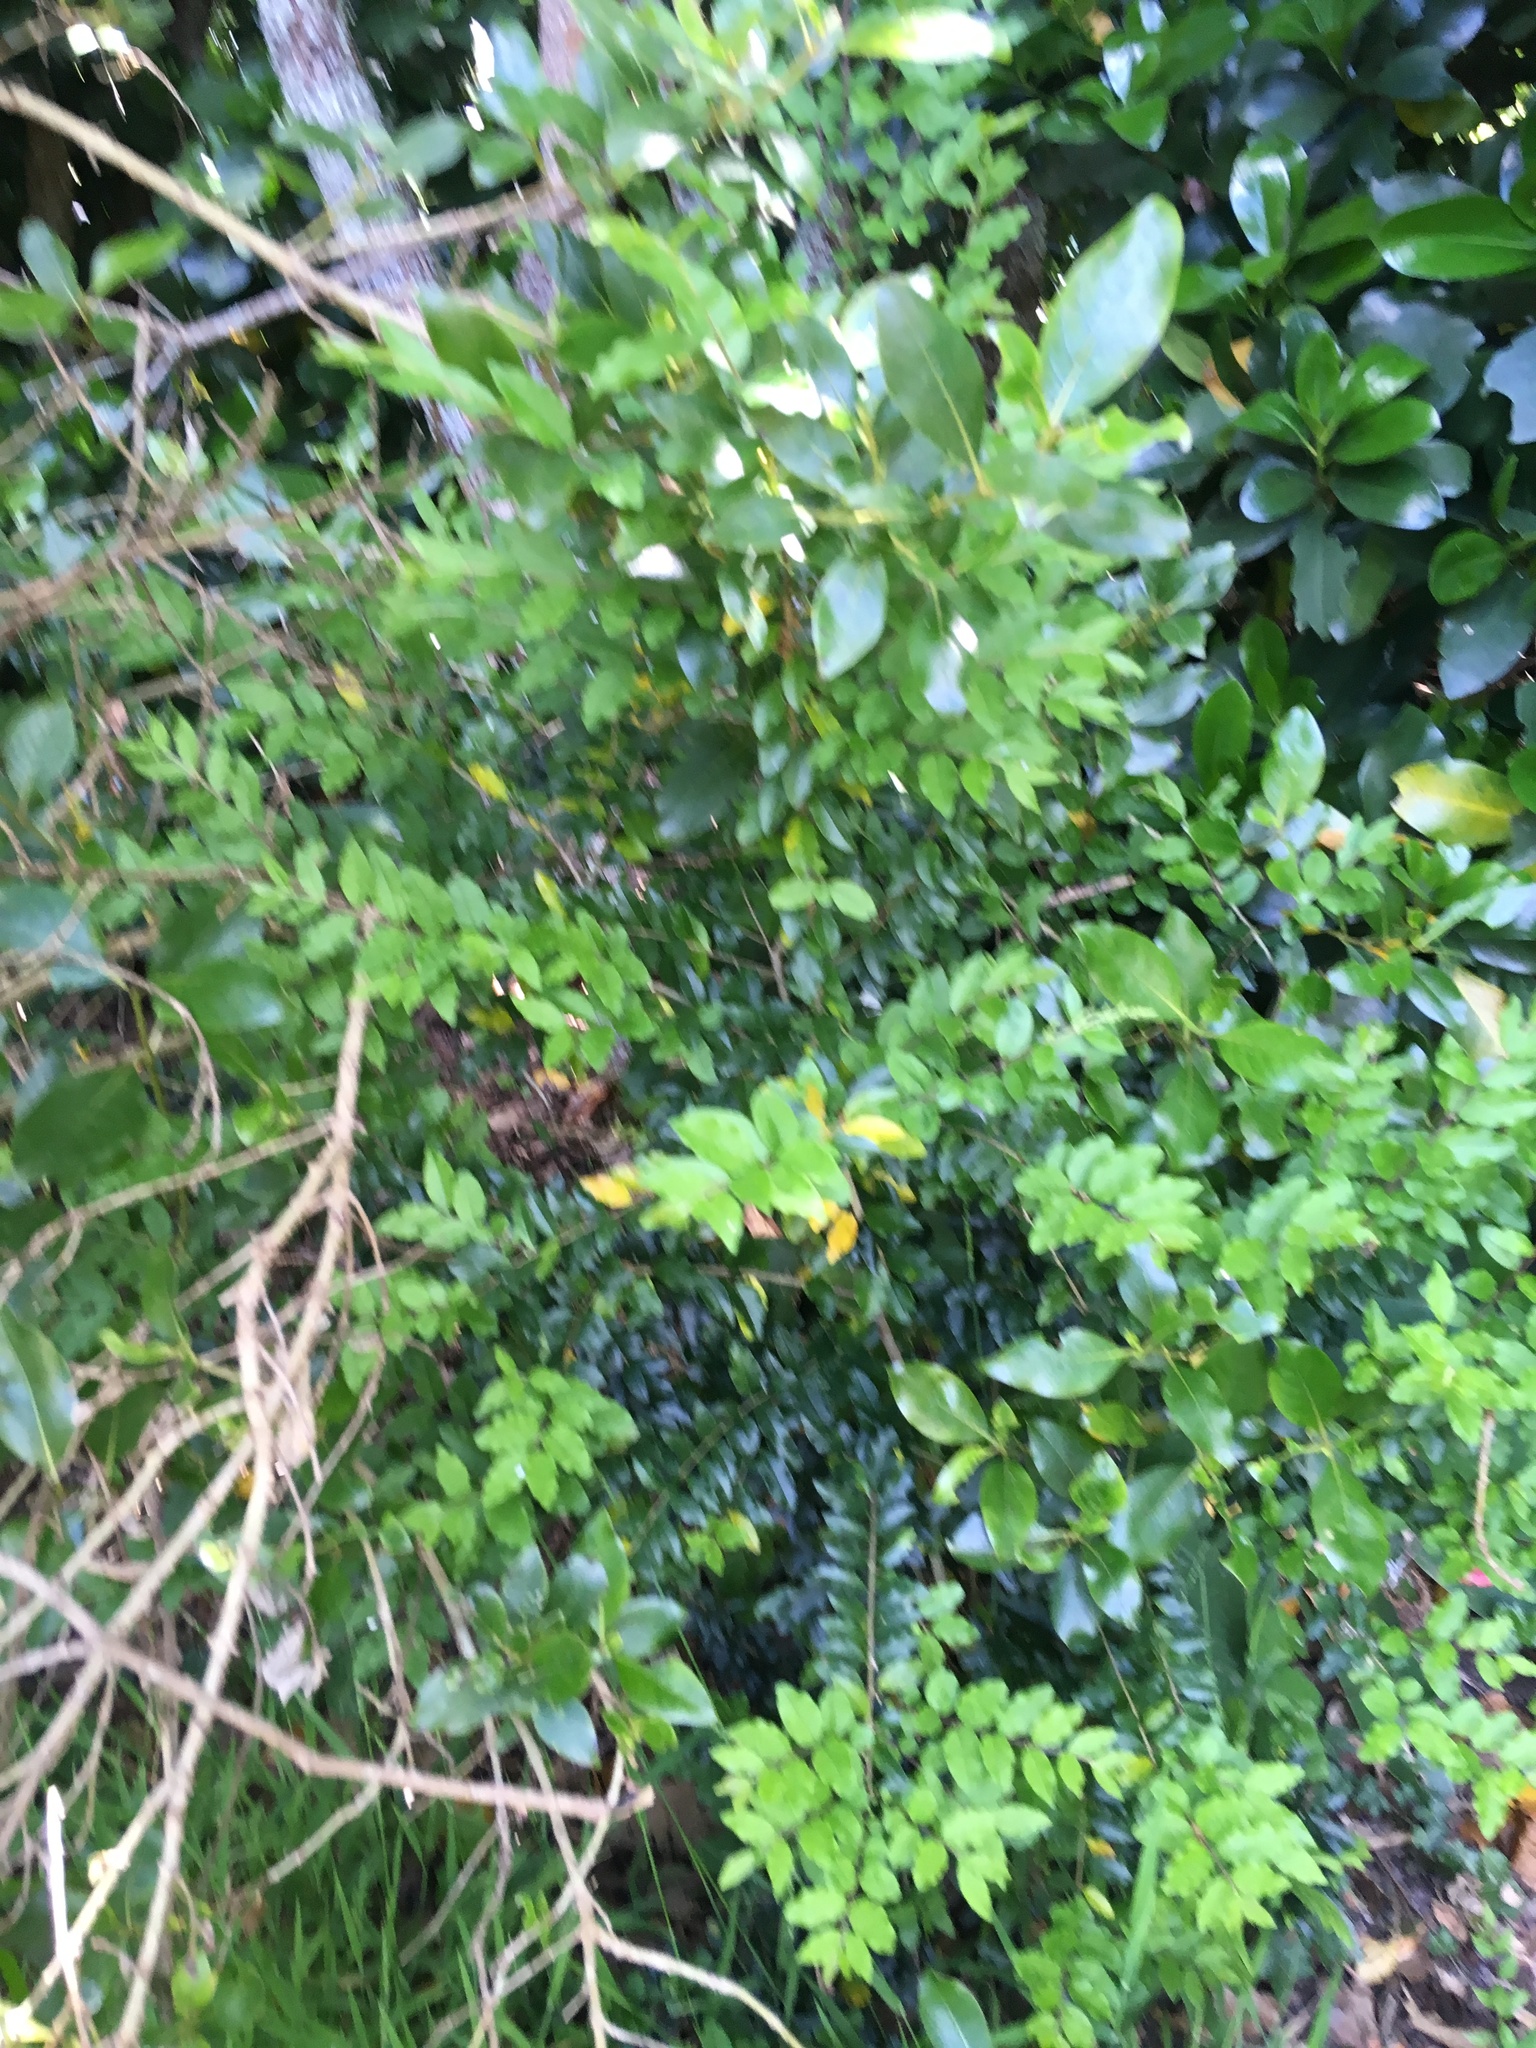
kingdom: Plantae
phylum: Tracheophyta
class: Magnoliopsida
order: Lamiales
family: Oleaceae
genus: Ligustrum
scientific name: Ligustrum sinense
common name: Chinese privet
